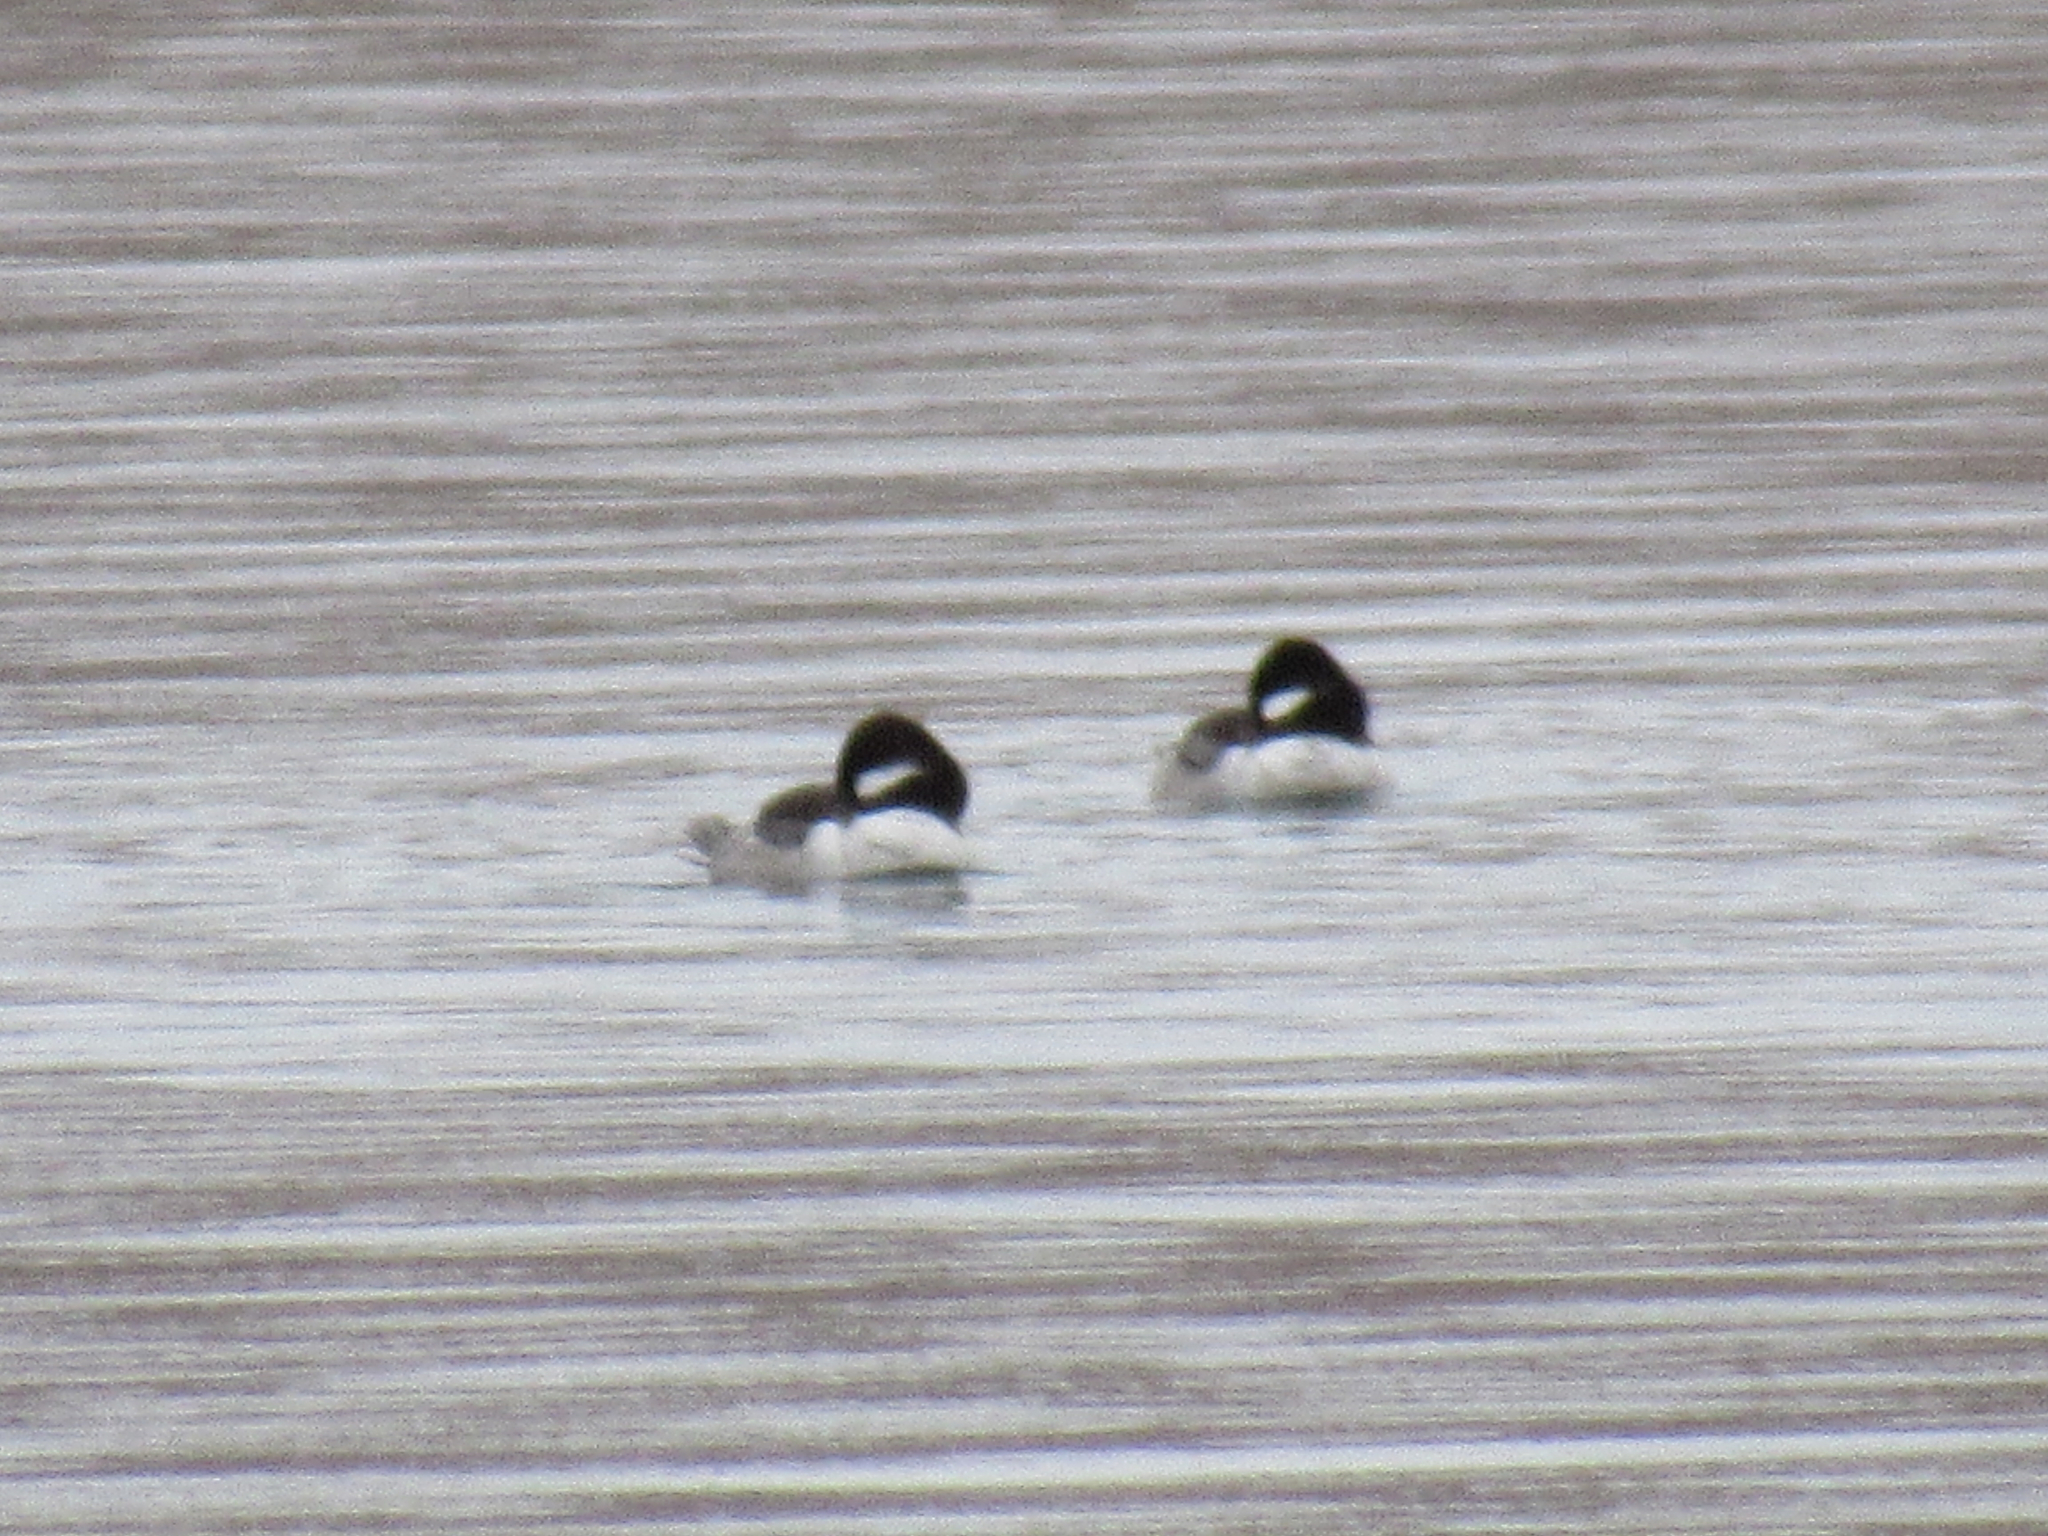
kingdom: Animalia
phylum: Chordata
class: Aves
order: Anseriformes
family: Anatidae
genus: Bucephala
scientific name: Bucephala albeola
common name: Bufflehead
